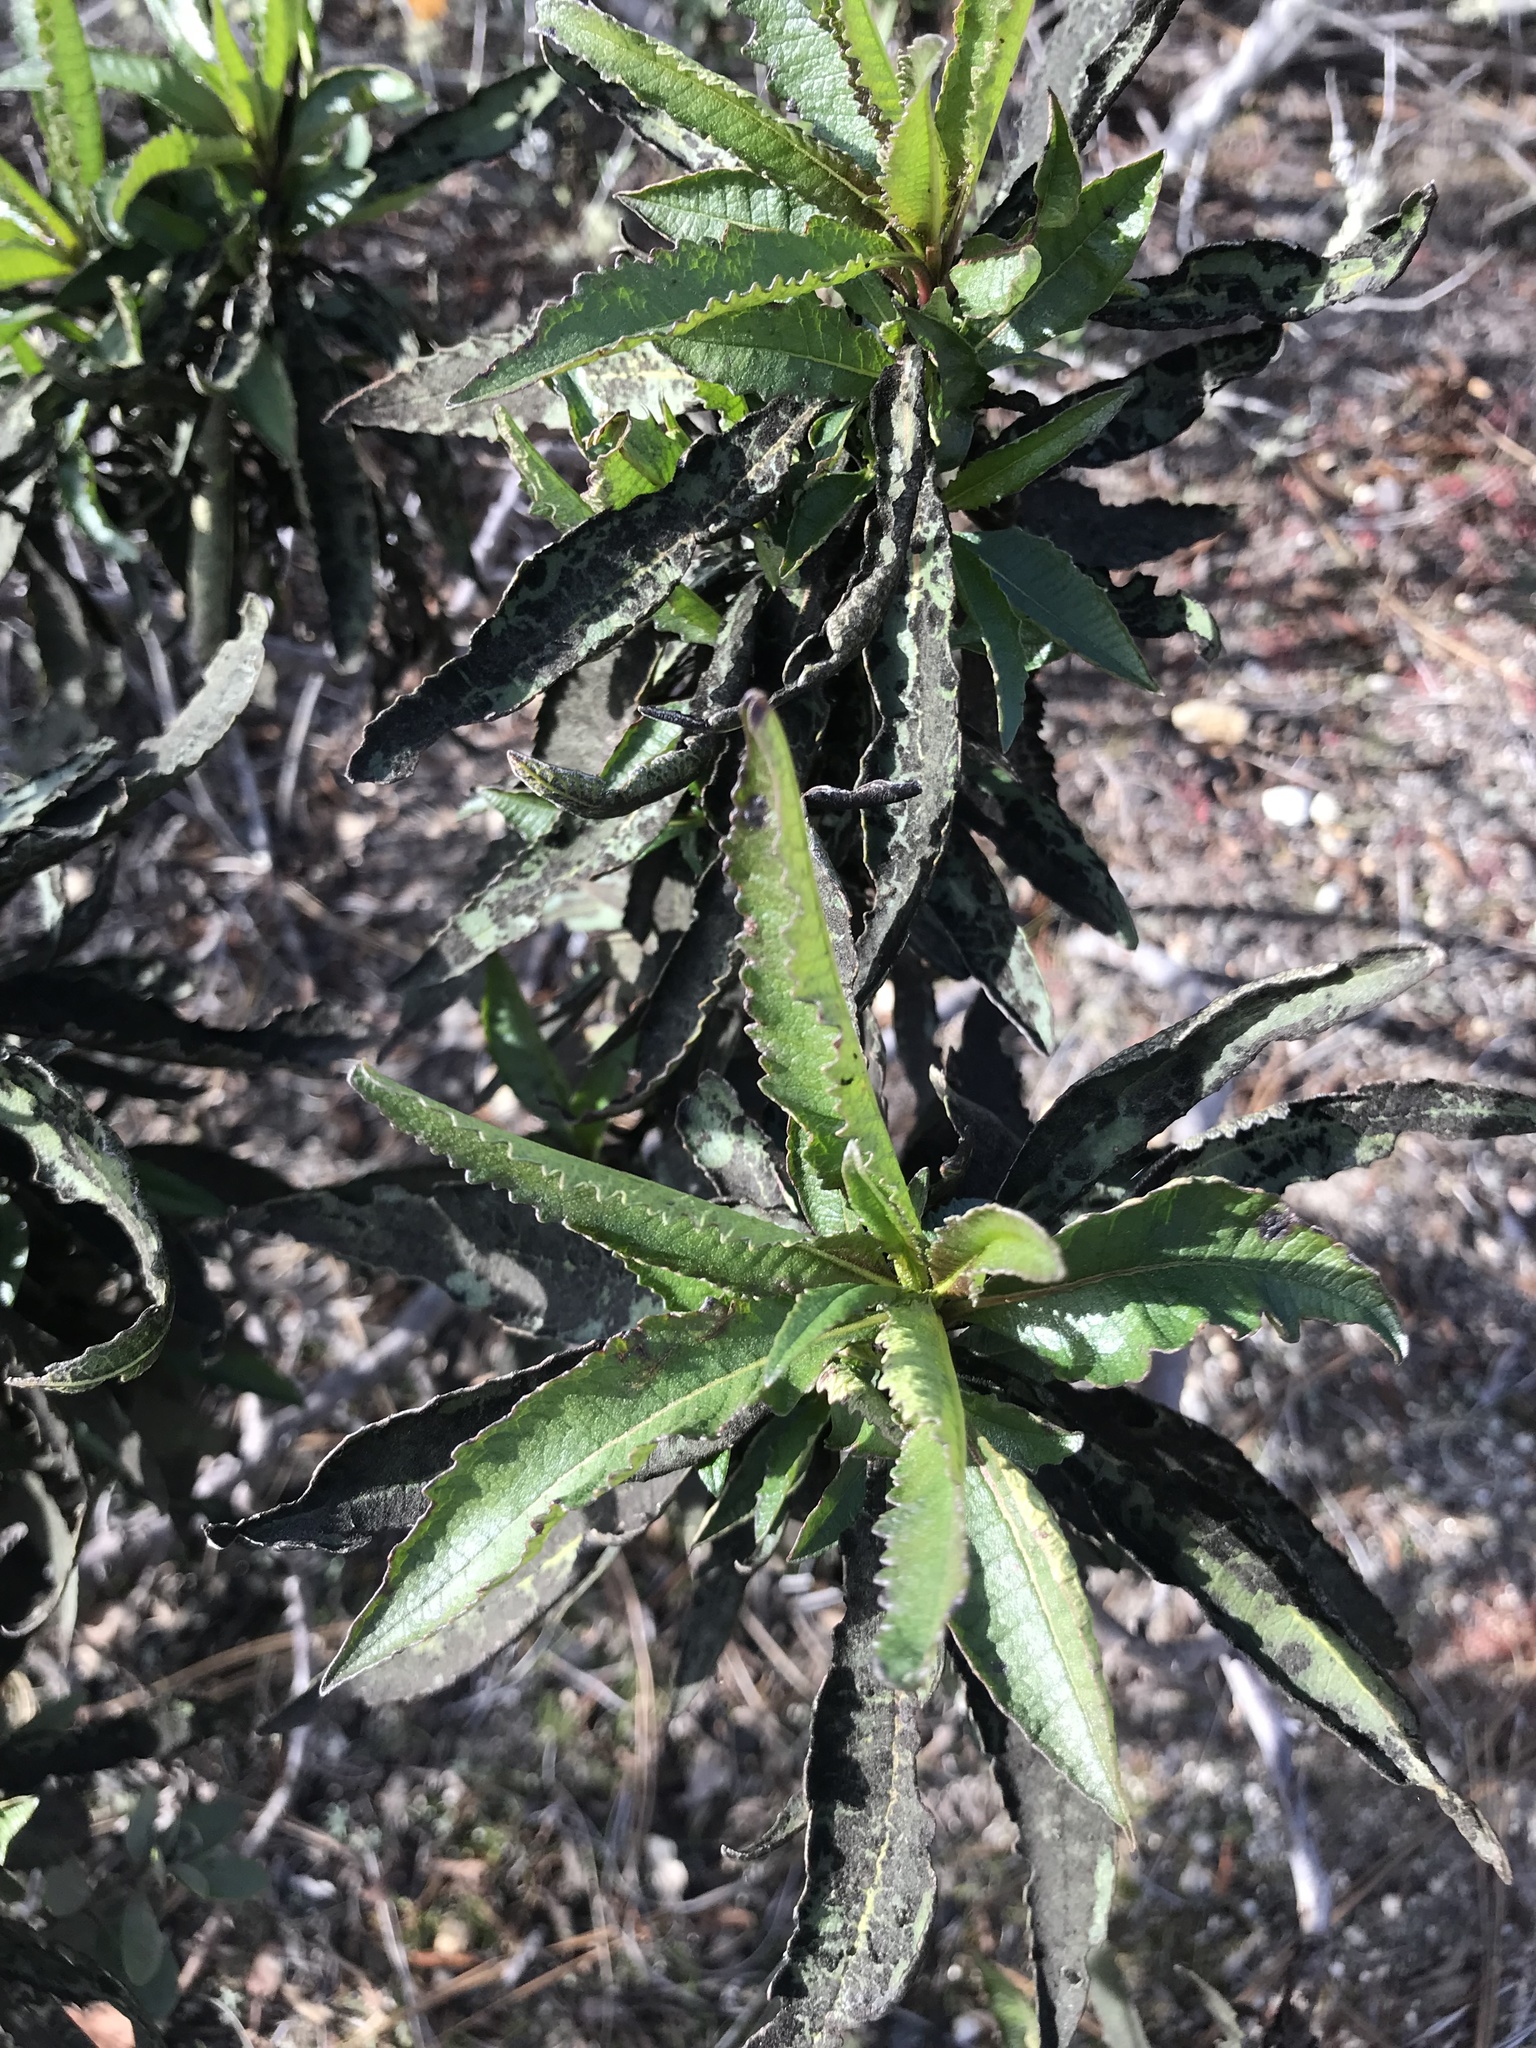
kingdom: Plantae
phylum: Tracheophyta
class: Magnoliopsida
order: Boraginales
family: Namaceae
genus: Eriodictyon
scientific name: Eriodictyon californicum
